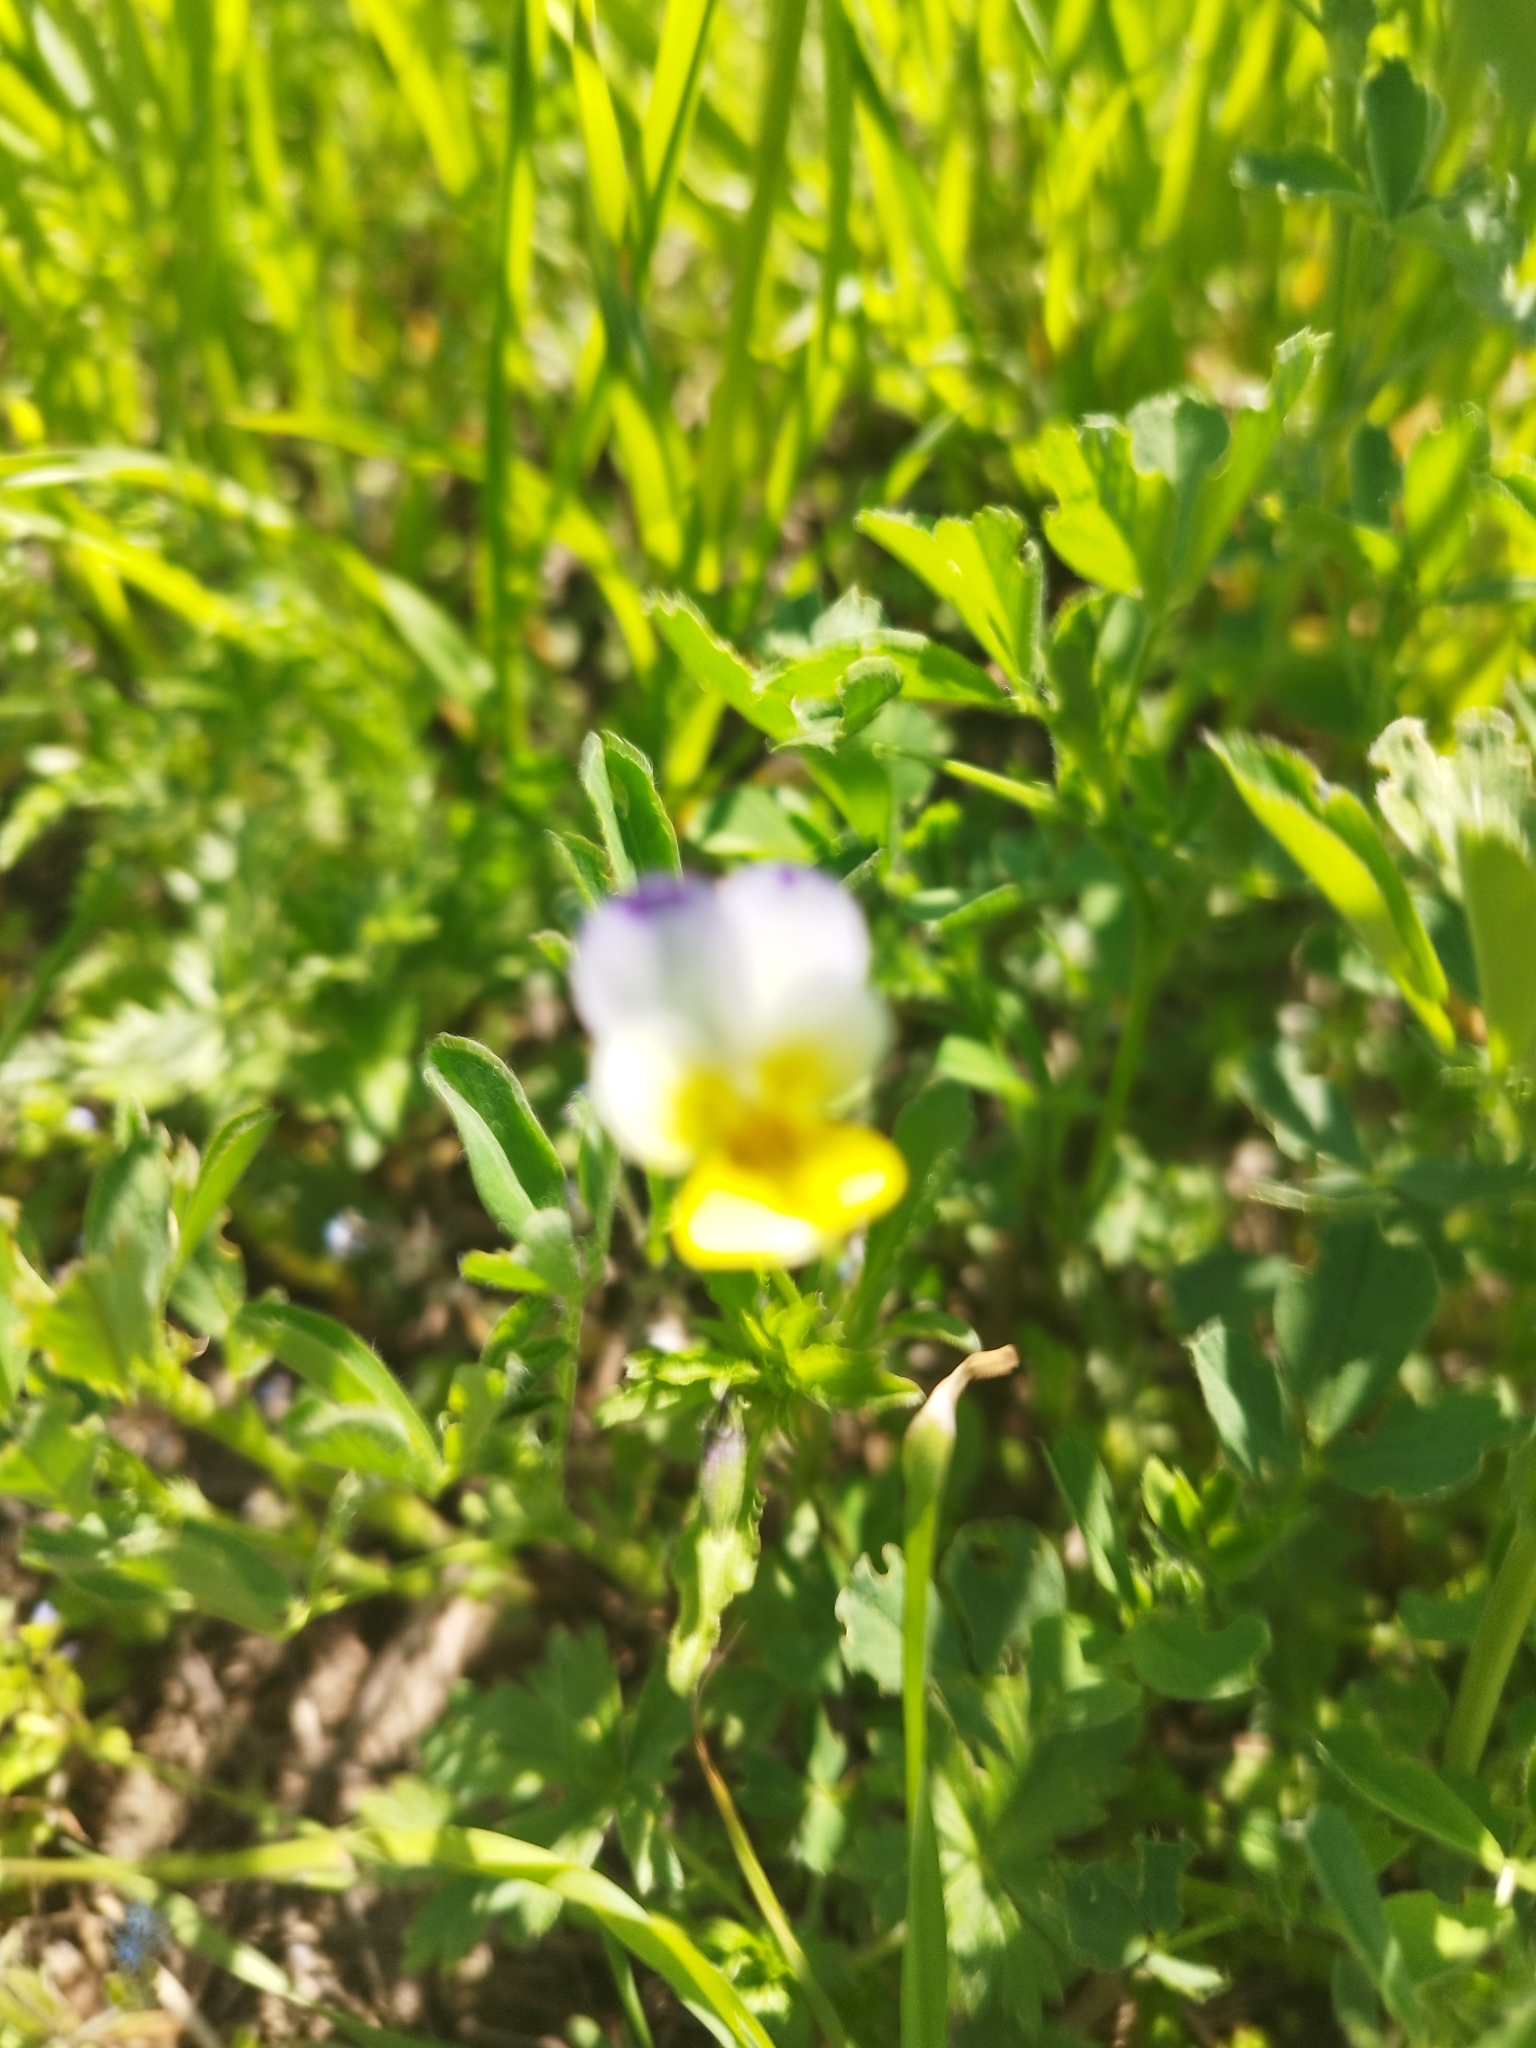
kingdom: Plantae
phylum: Tracheophyta
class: Magnoliopsida
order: Malpighiales
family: Violaceae
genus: Viola
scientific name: Viola contempta
